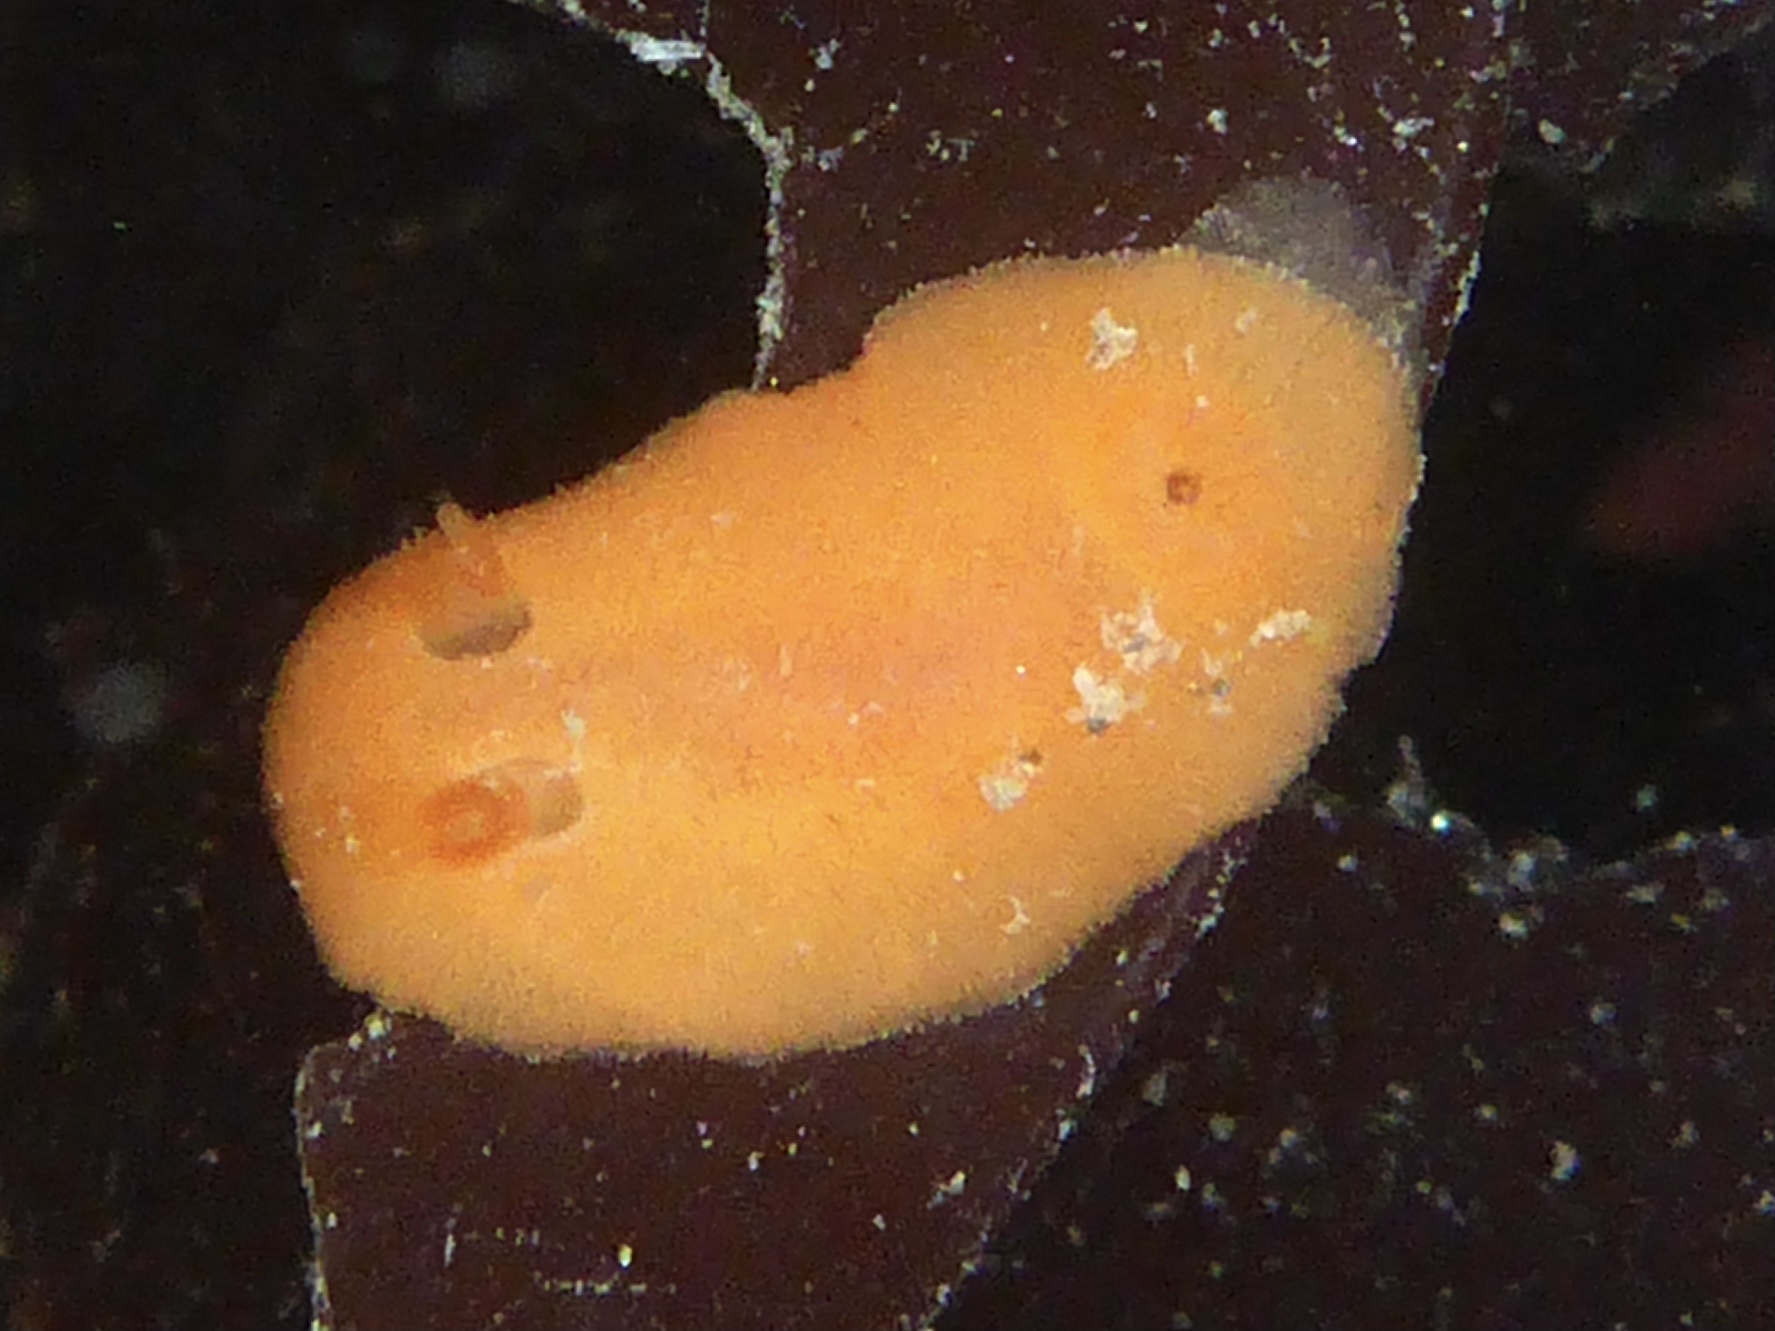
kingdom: Animalia
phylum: Mollusca
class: Gastropoda
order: Nudibranchia
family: Discodorididae
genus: Rostanga
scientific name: Rostanga pulchra
